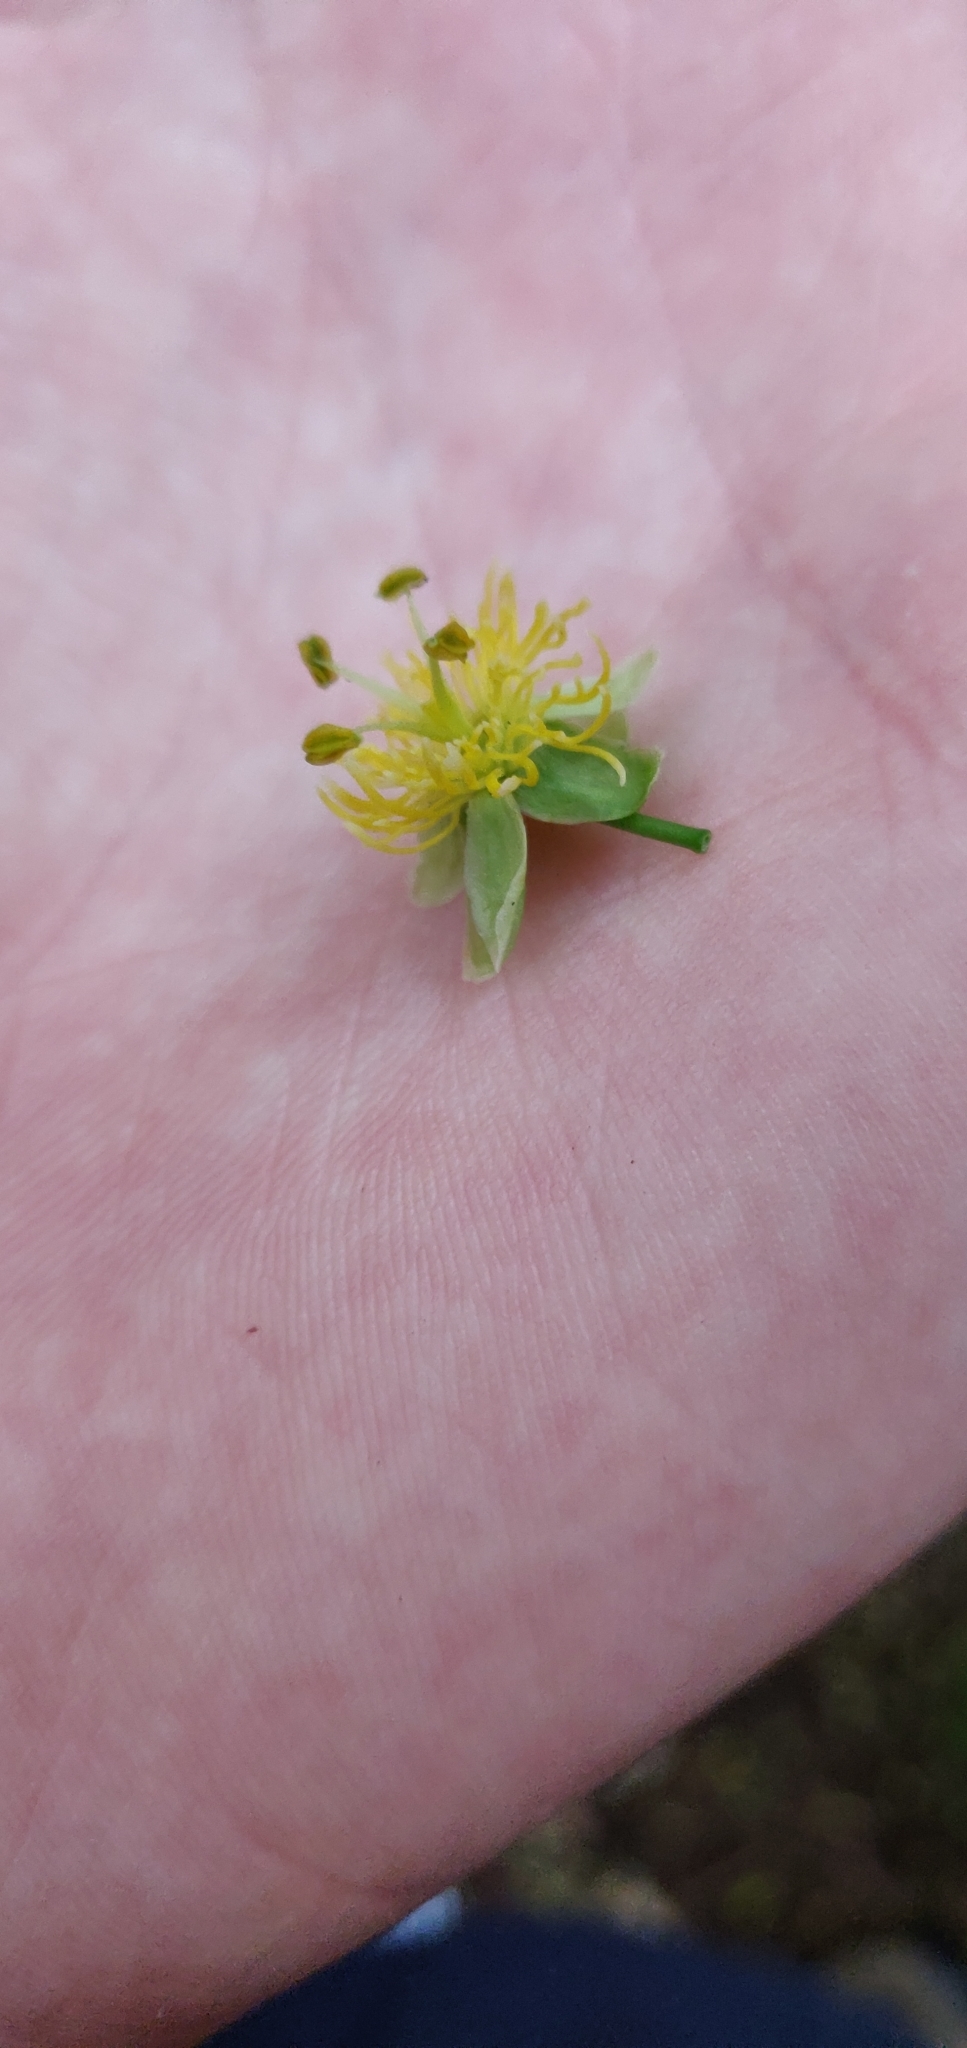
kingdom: Plantae
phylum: Tracheophyta
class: Magnoliopsida
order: Malpighiales
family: Passifloraceae
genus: Passiflora
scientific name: Passiflora tetrandra
